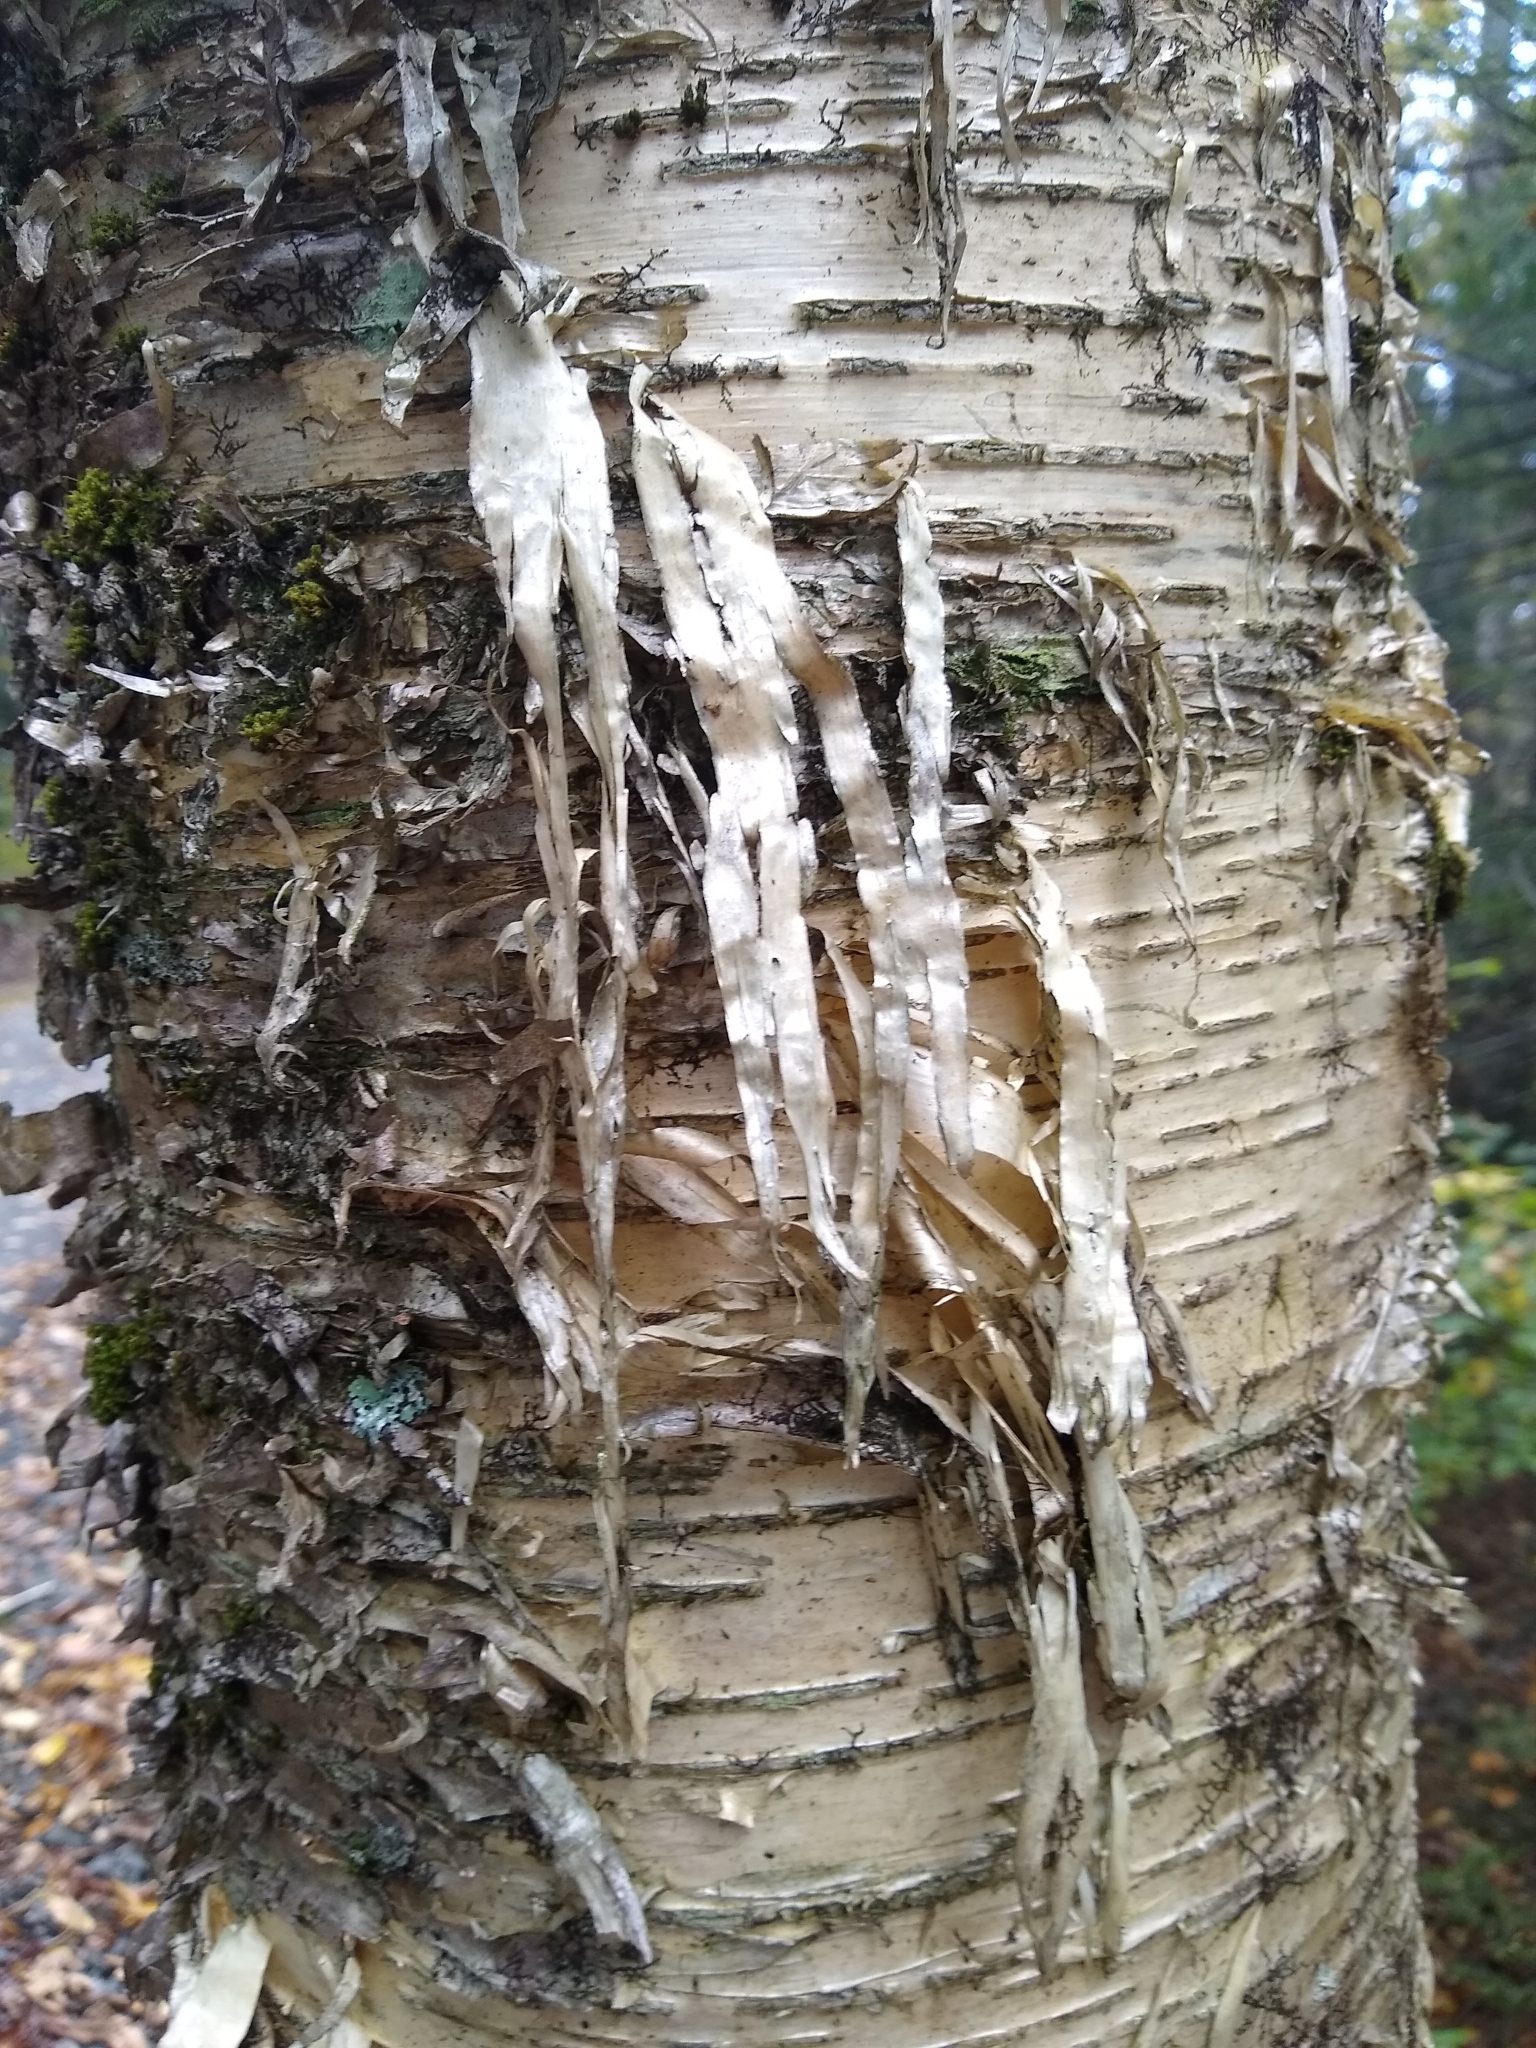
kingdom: Plantae
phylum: Tracheophyta
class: Magnoliopsida
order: Fagales
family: Betulaceae
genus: Betula
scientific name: Betula alleghaniensis
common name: Yellow birch
